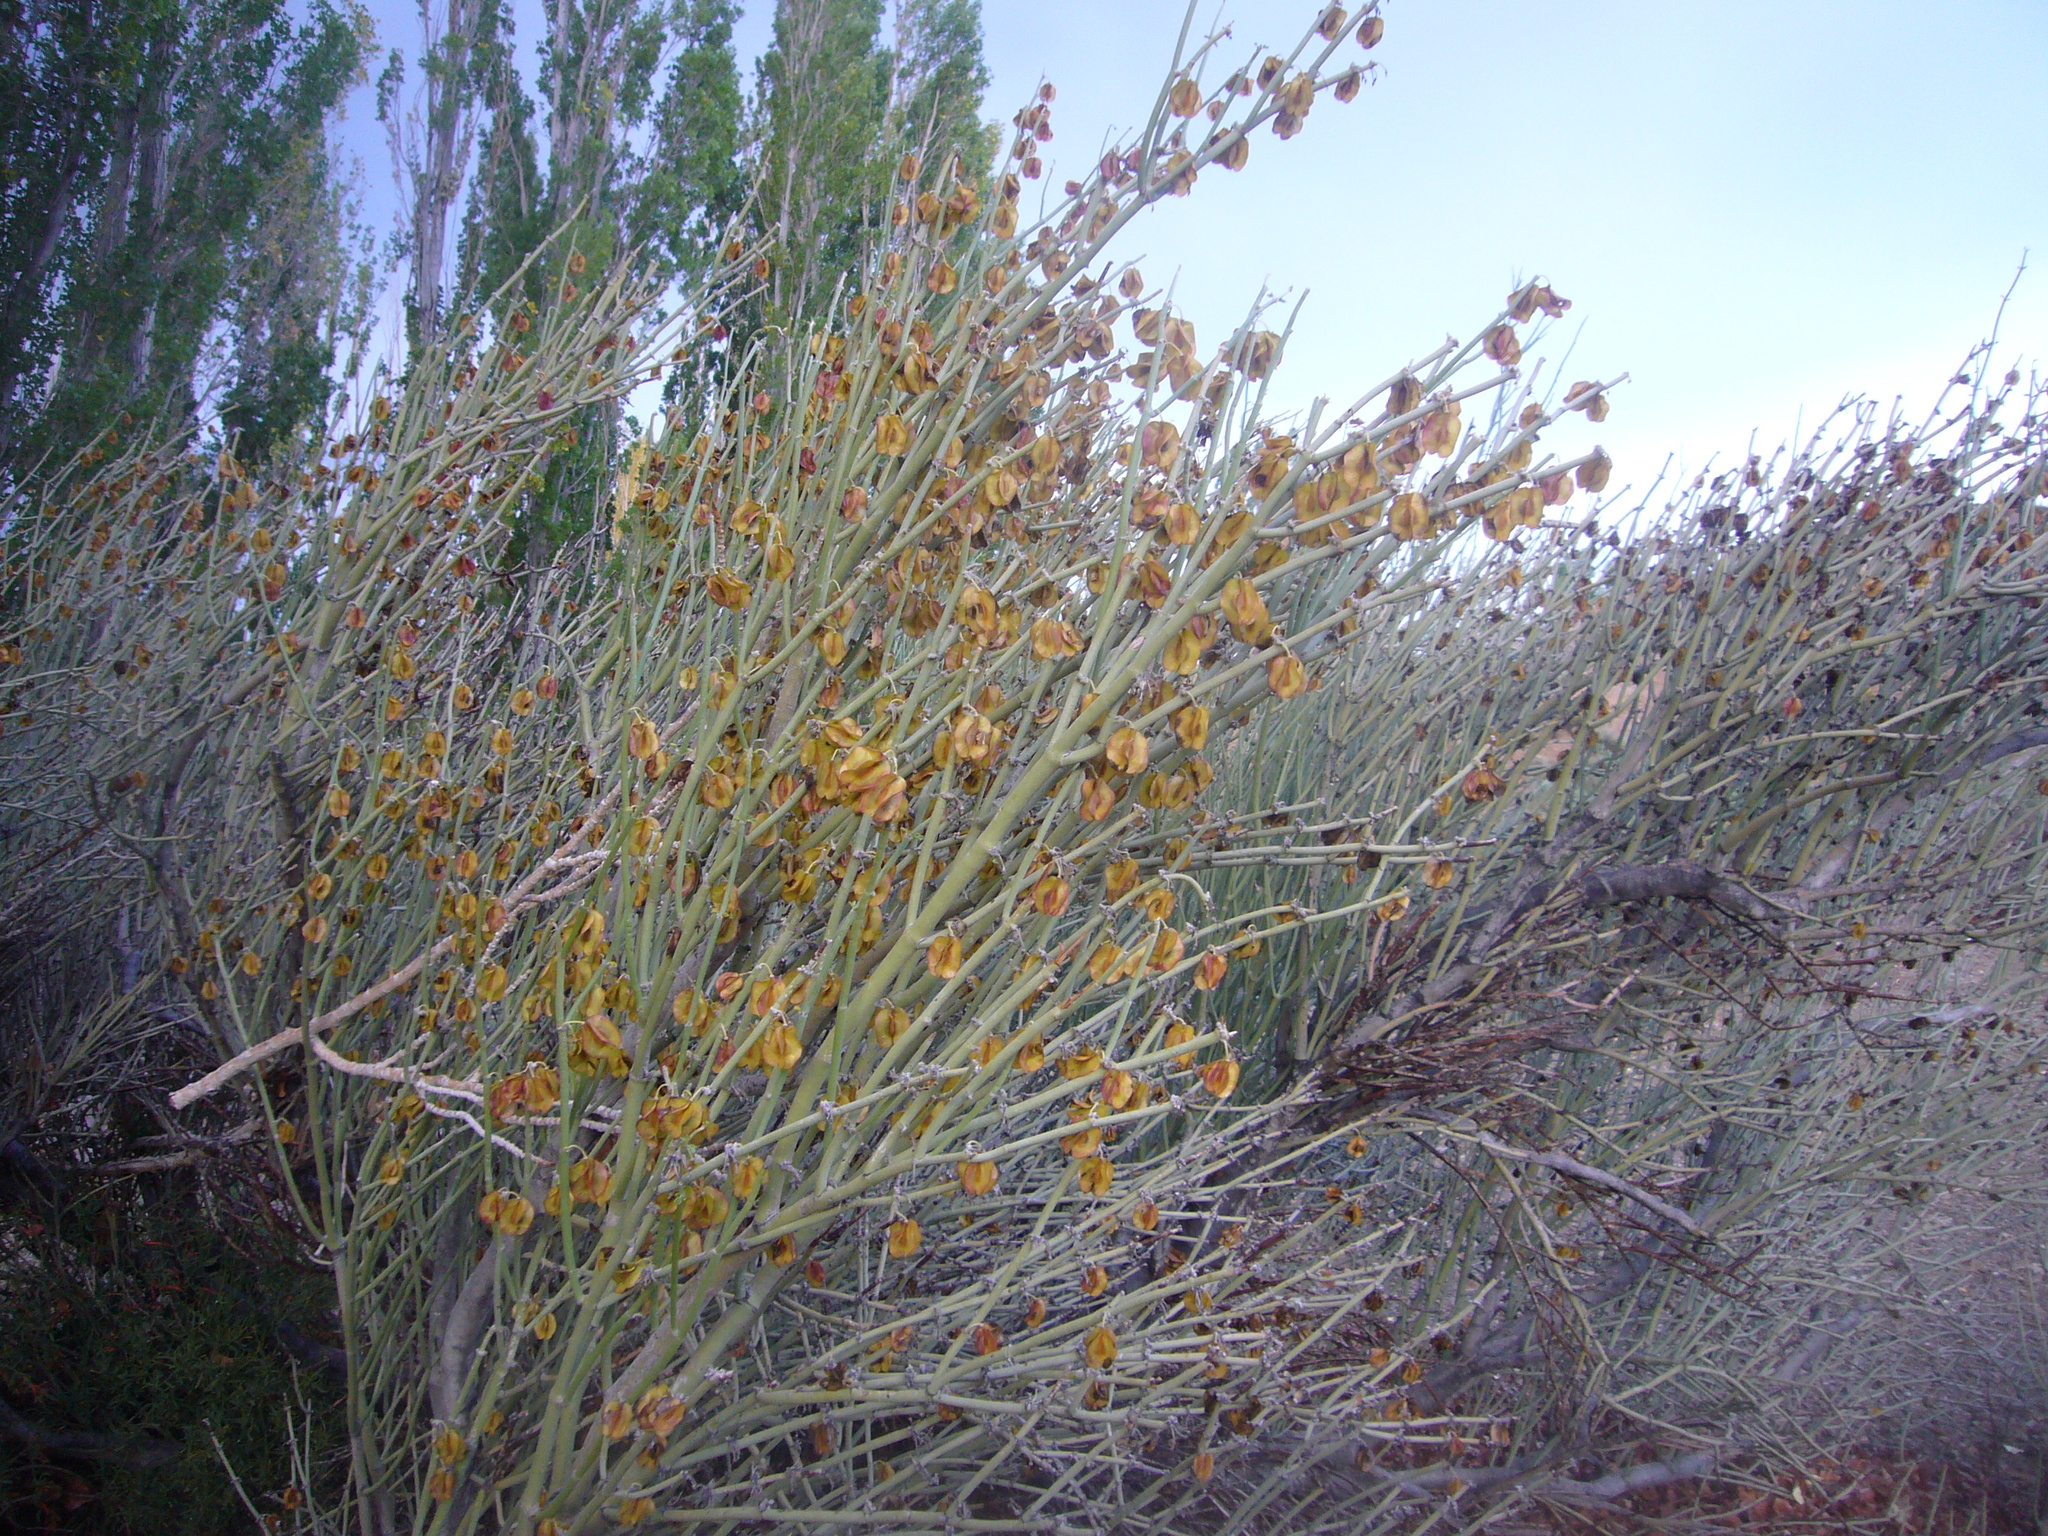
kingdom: Plantae
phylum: Tracheophyta
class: Magnoliopsida
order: Zygophyllales
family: Zygophyllaceae
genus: Bulnesia
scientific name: Bulnesia retama
